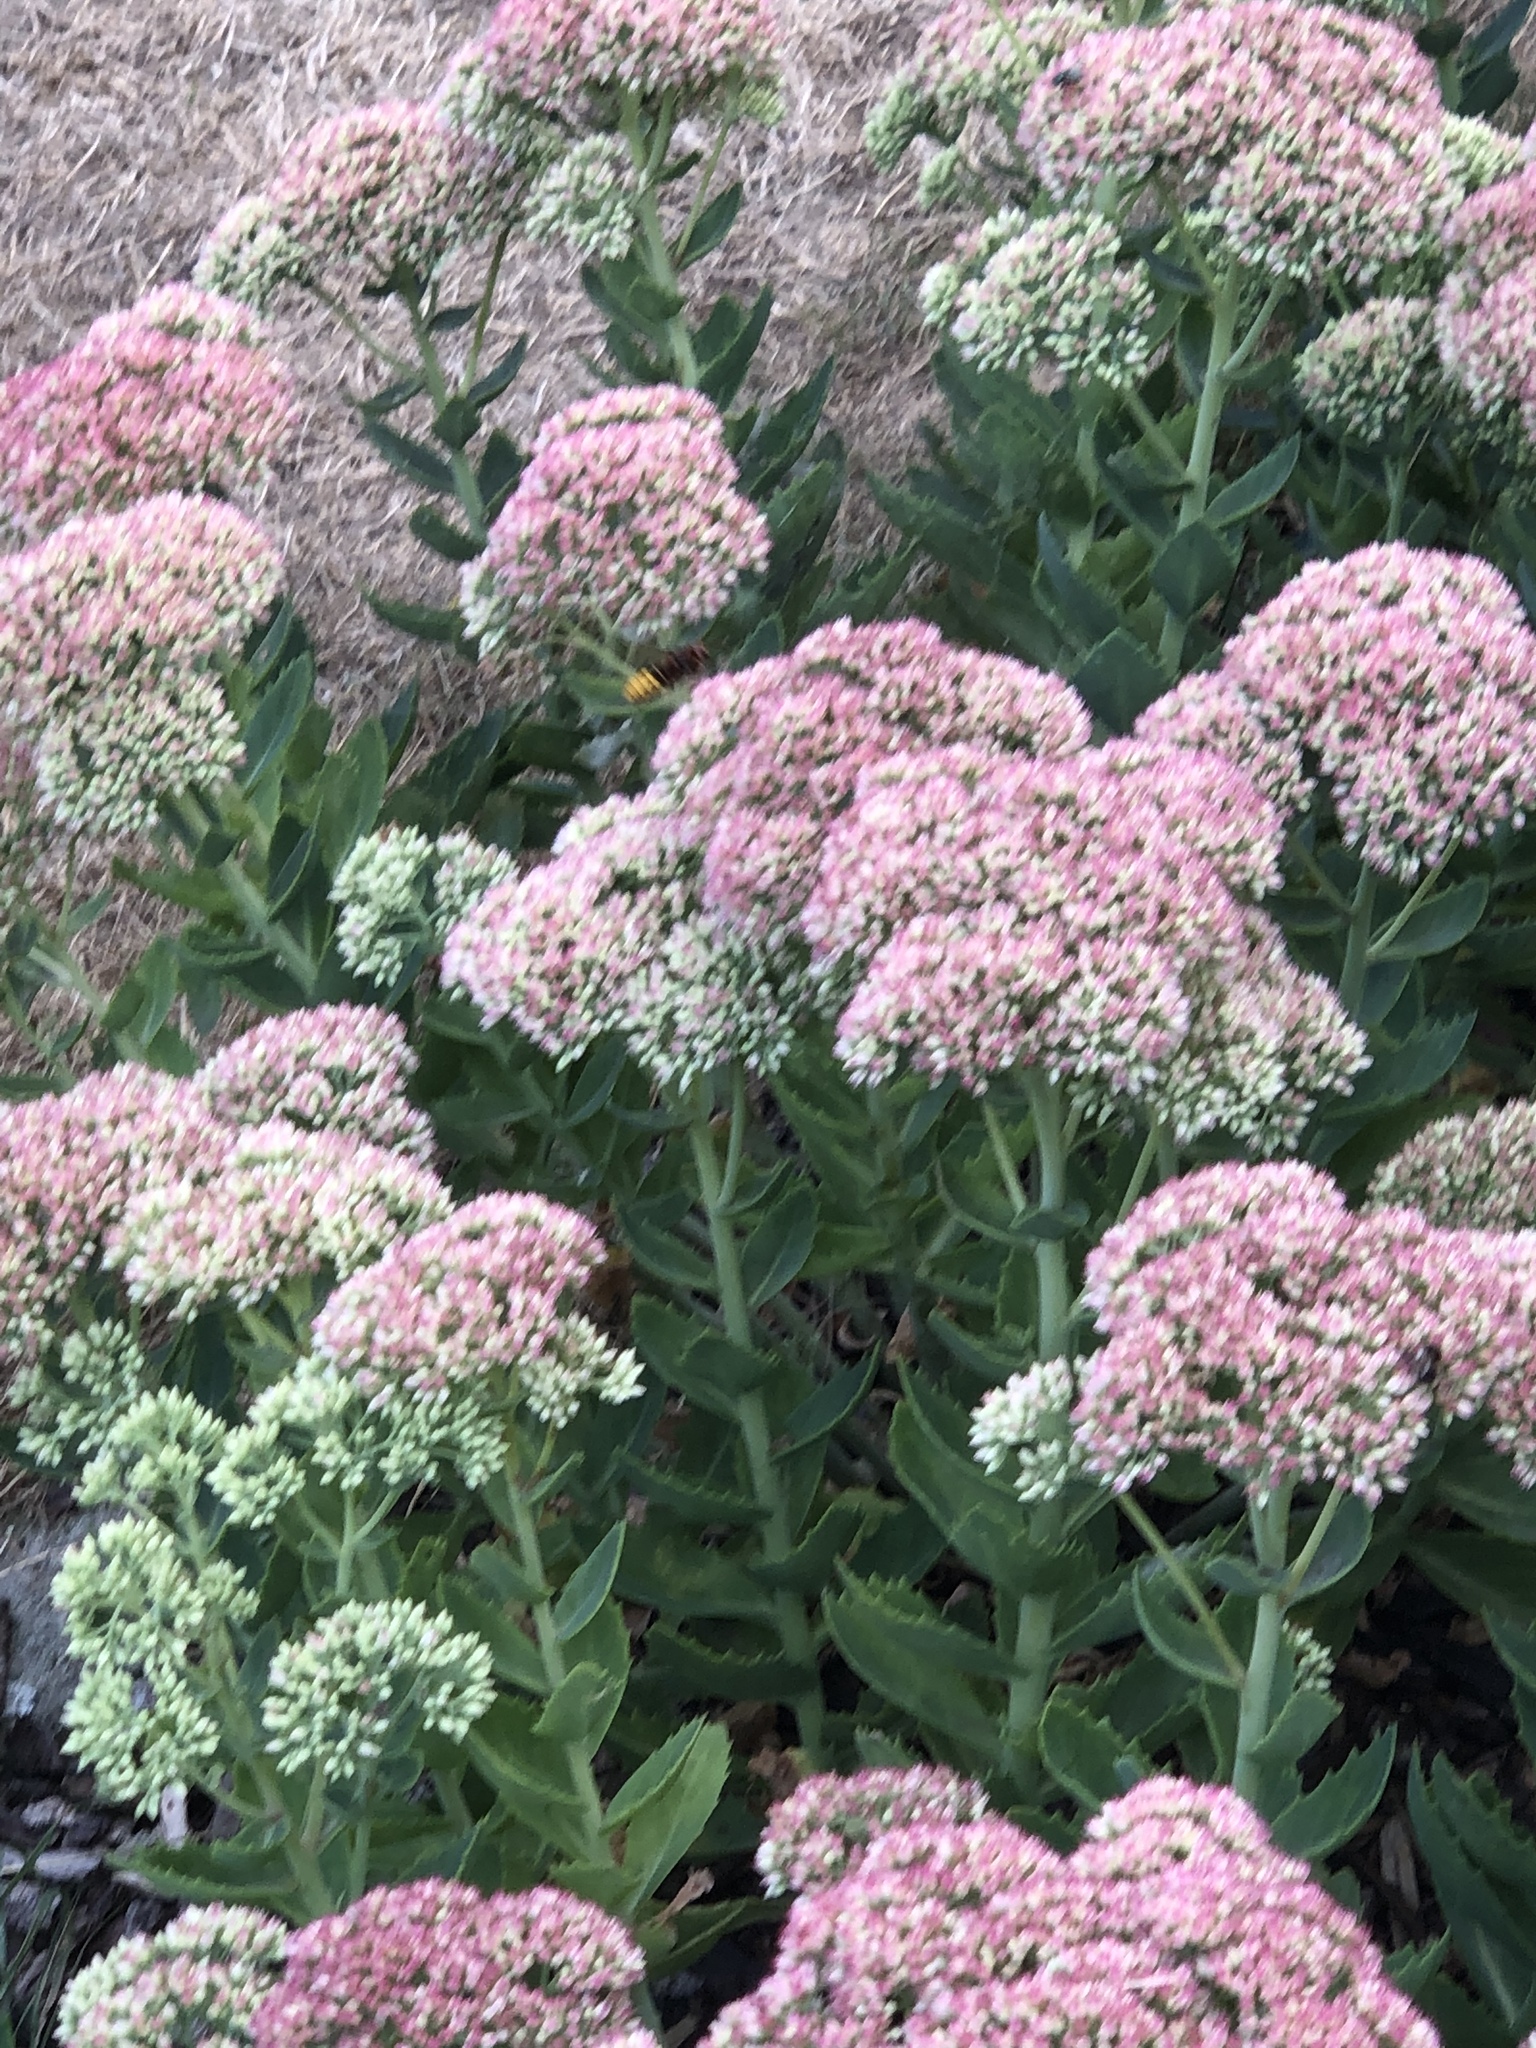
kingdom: Animalia
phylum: Arthropoda
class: Insecta
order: Hymenoptera
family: Vespidae
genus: Vespa
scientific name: Vespa crabro
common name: Hornet
